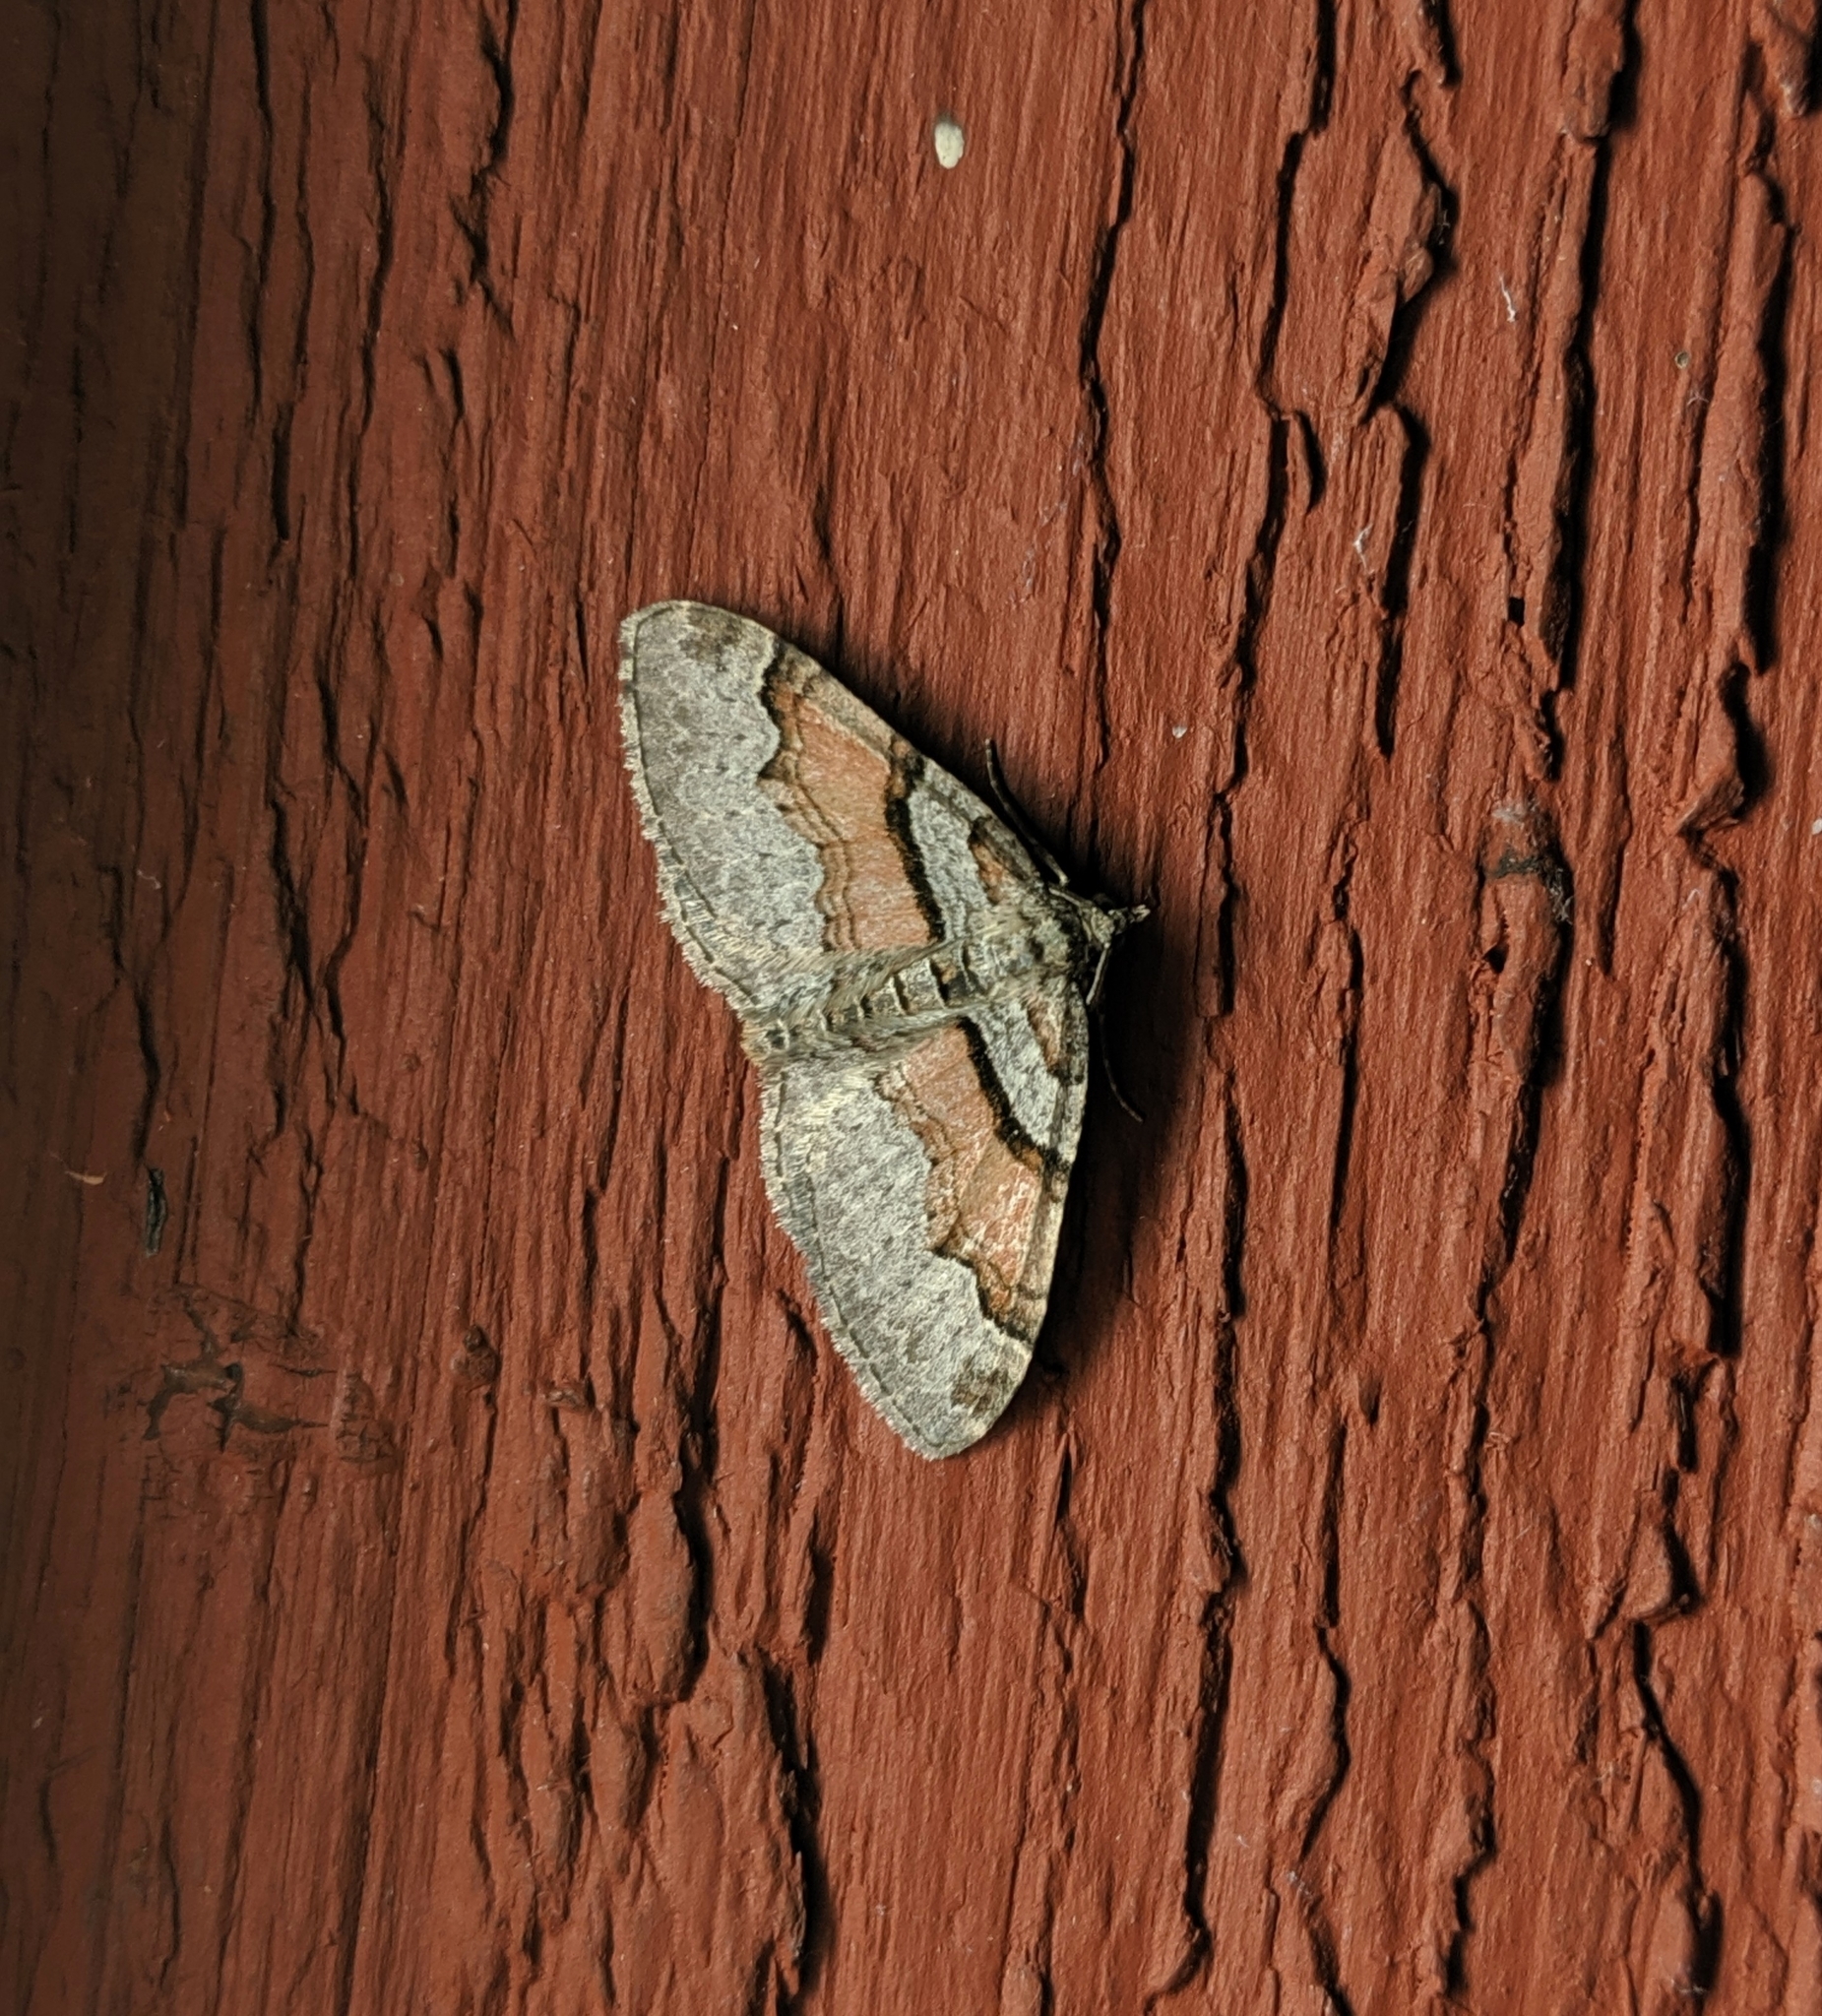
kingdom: Animalia
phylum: Arthropoda
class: Insecta
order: Lepidoptera
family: Geometridae
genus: Xanthorhoe
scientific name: Xanthorhoe labradorensis
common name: Labrador carpet
